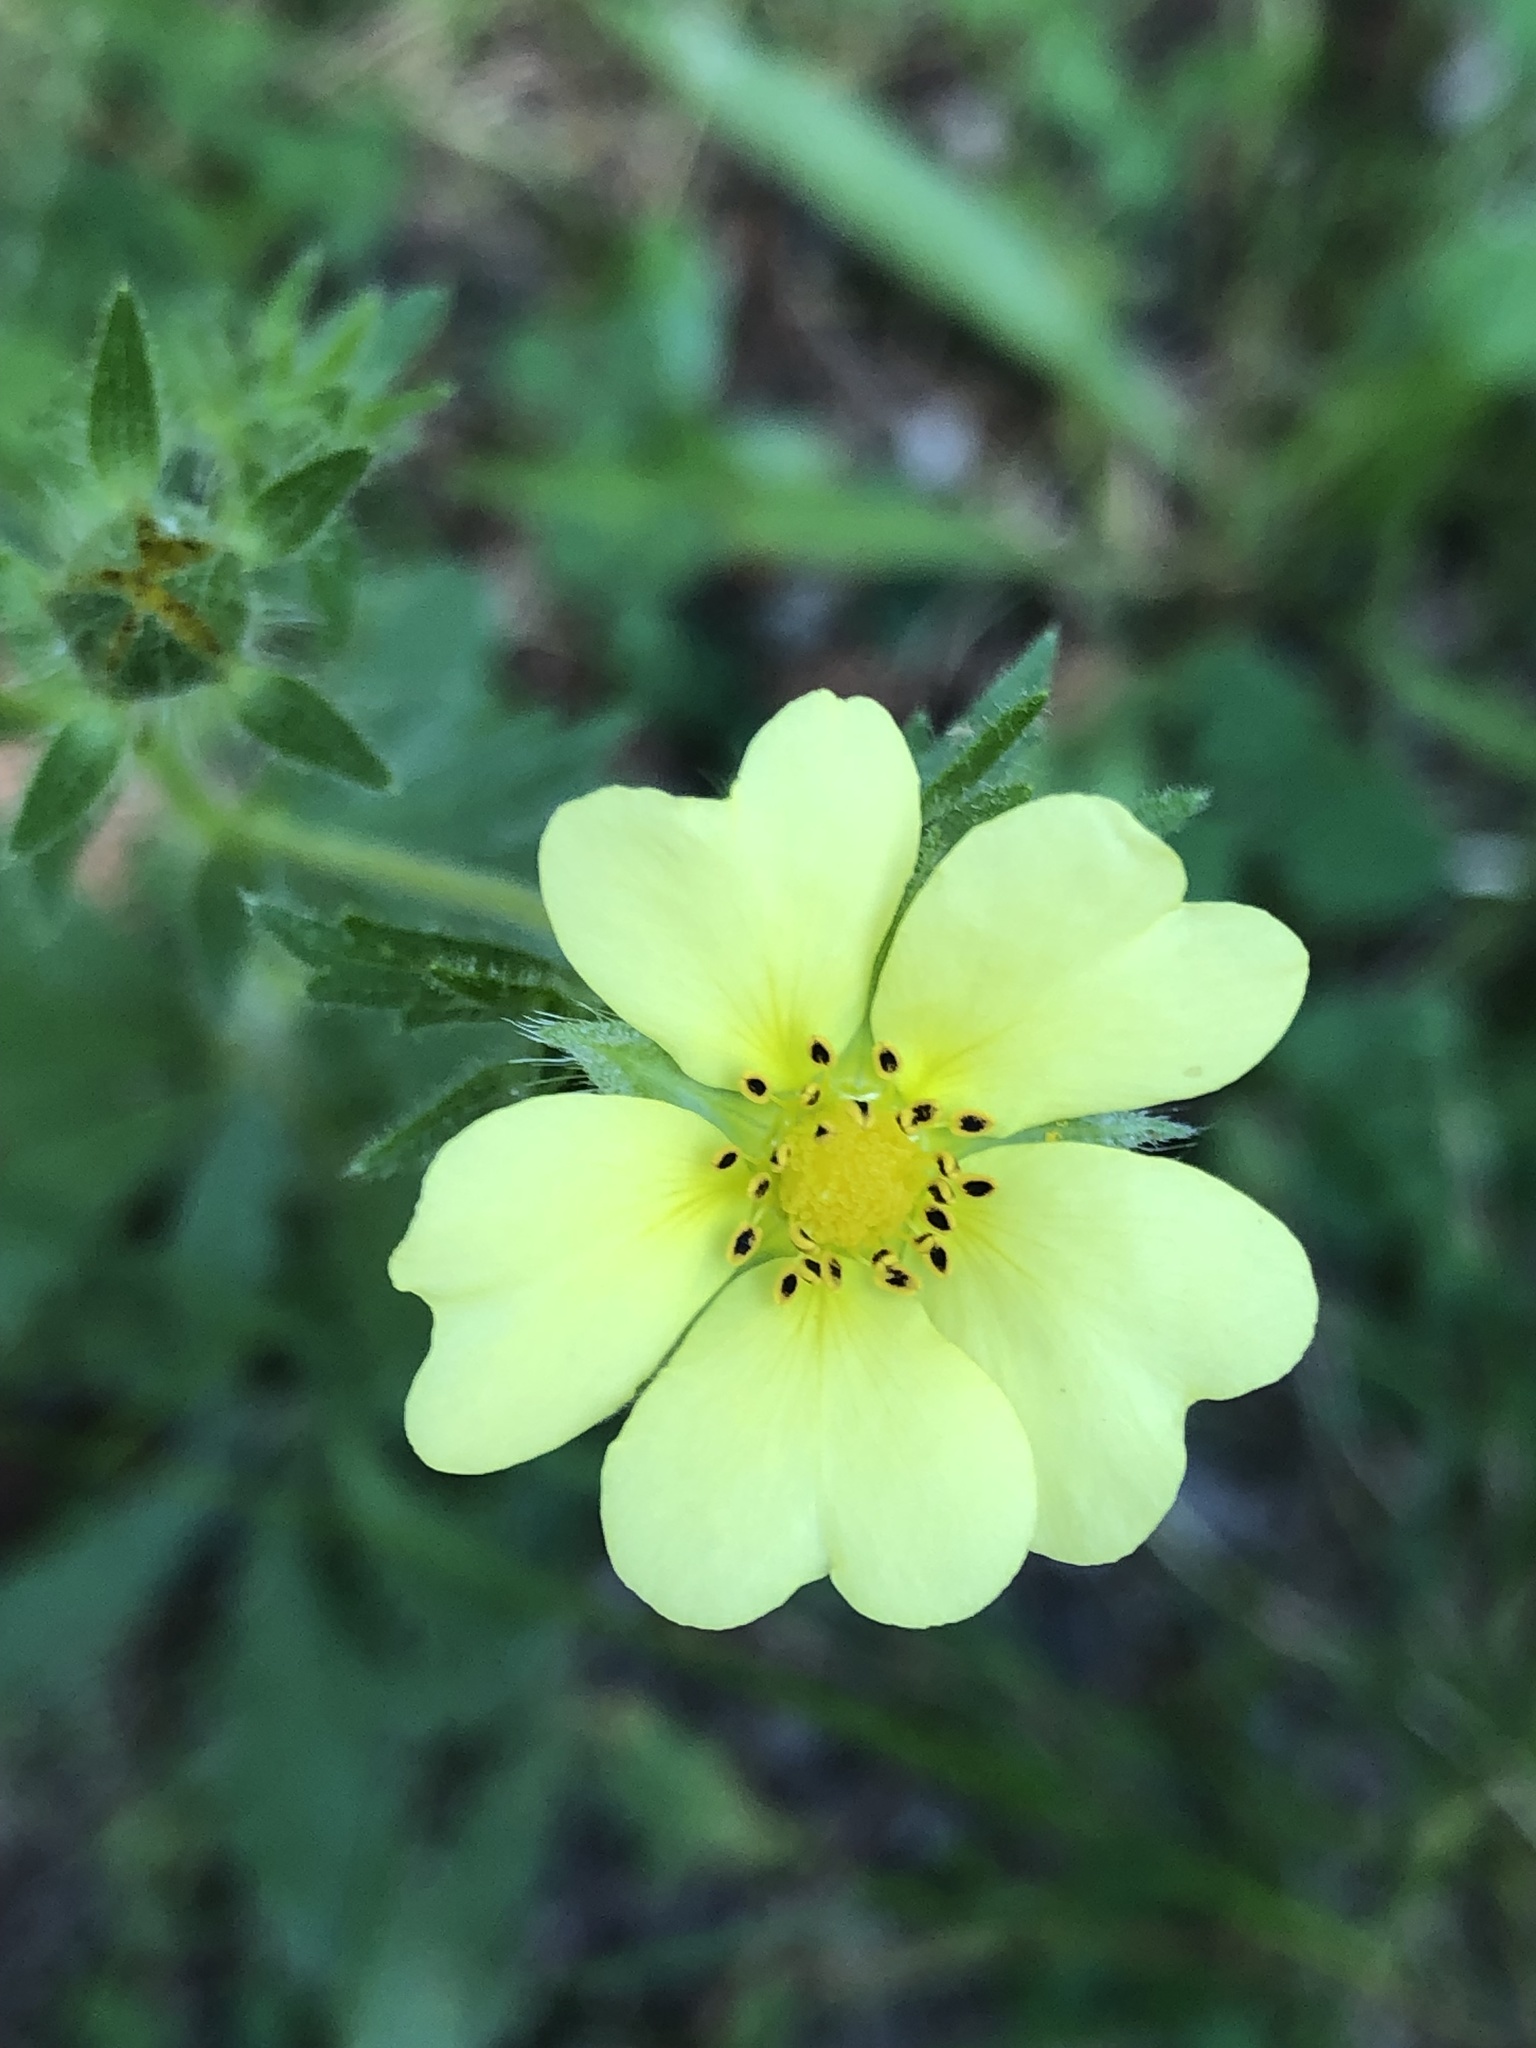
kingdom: Plantae
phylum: Tracheophyta
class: Magnoliopsida
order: Rosales
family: Rosaceae
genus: Potentilla
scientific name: Potentilla recta
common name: Sulphur cinquefoil
